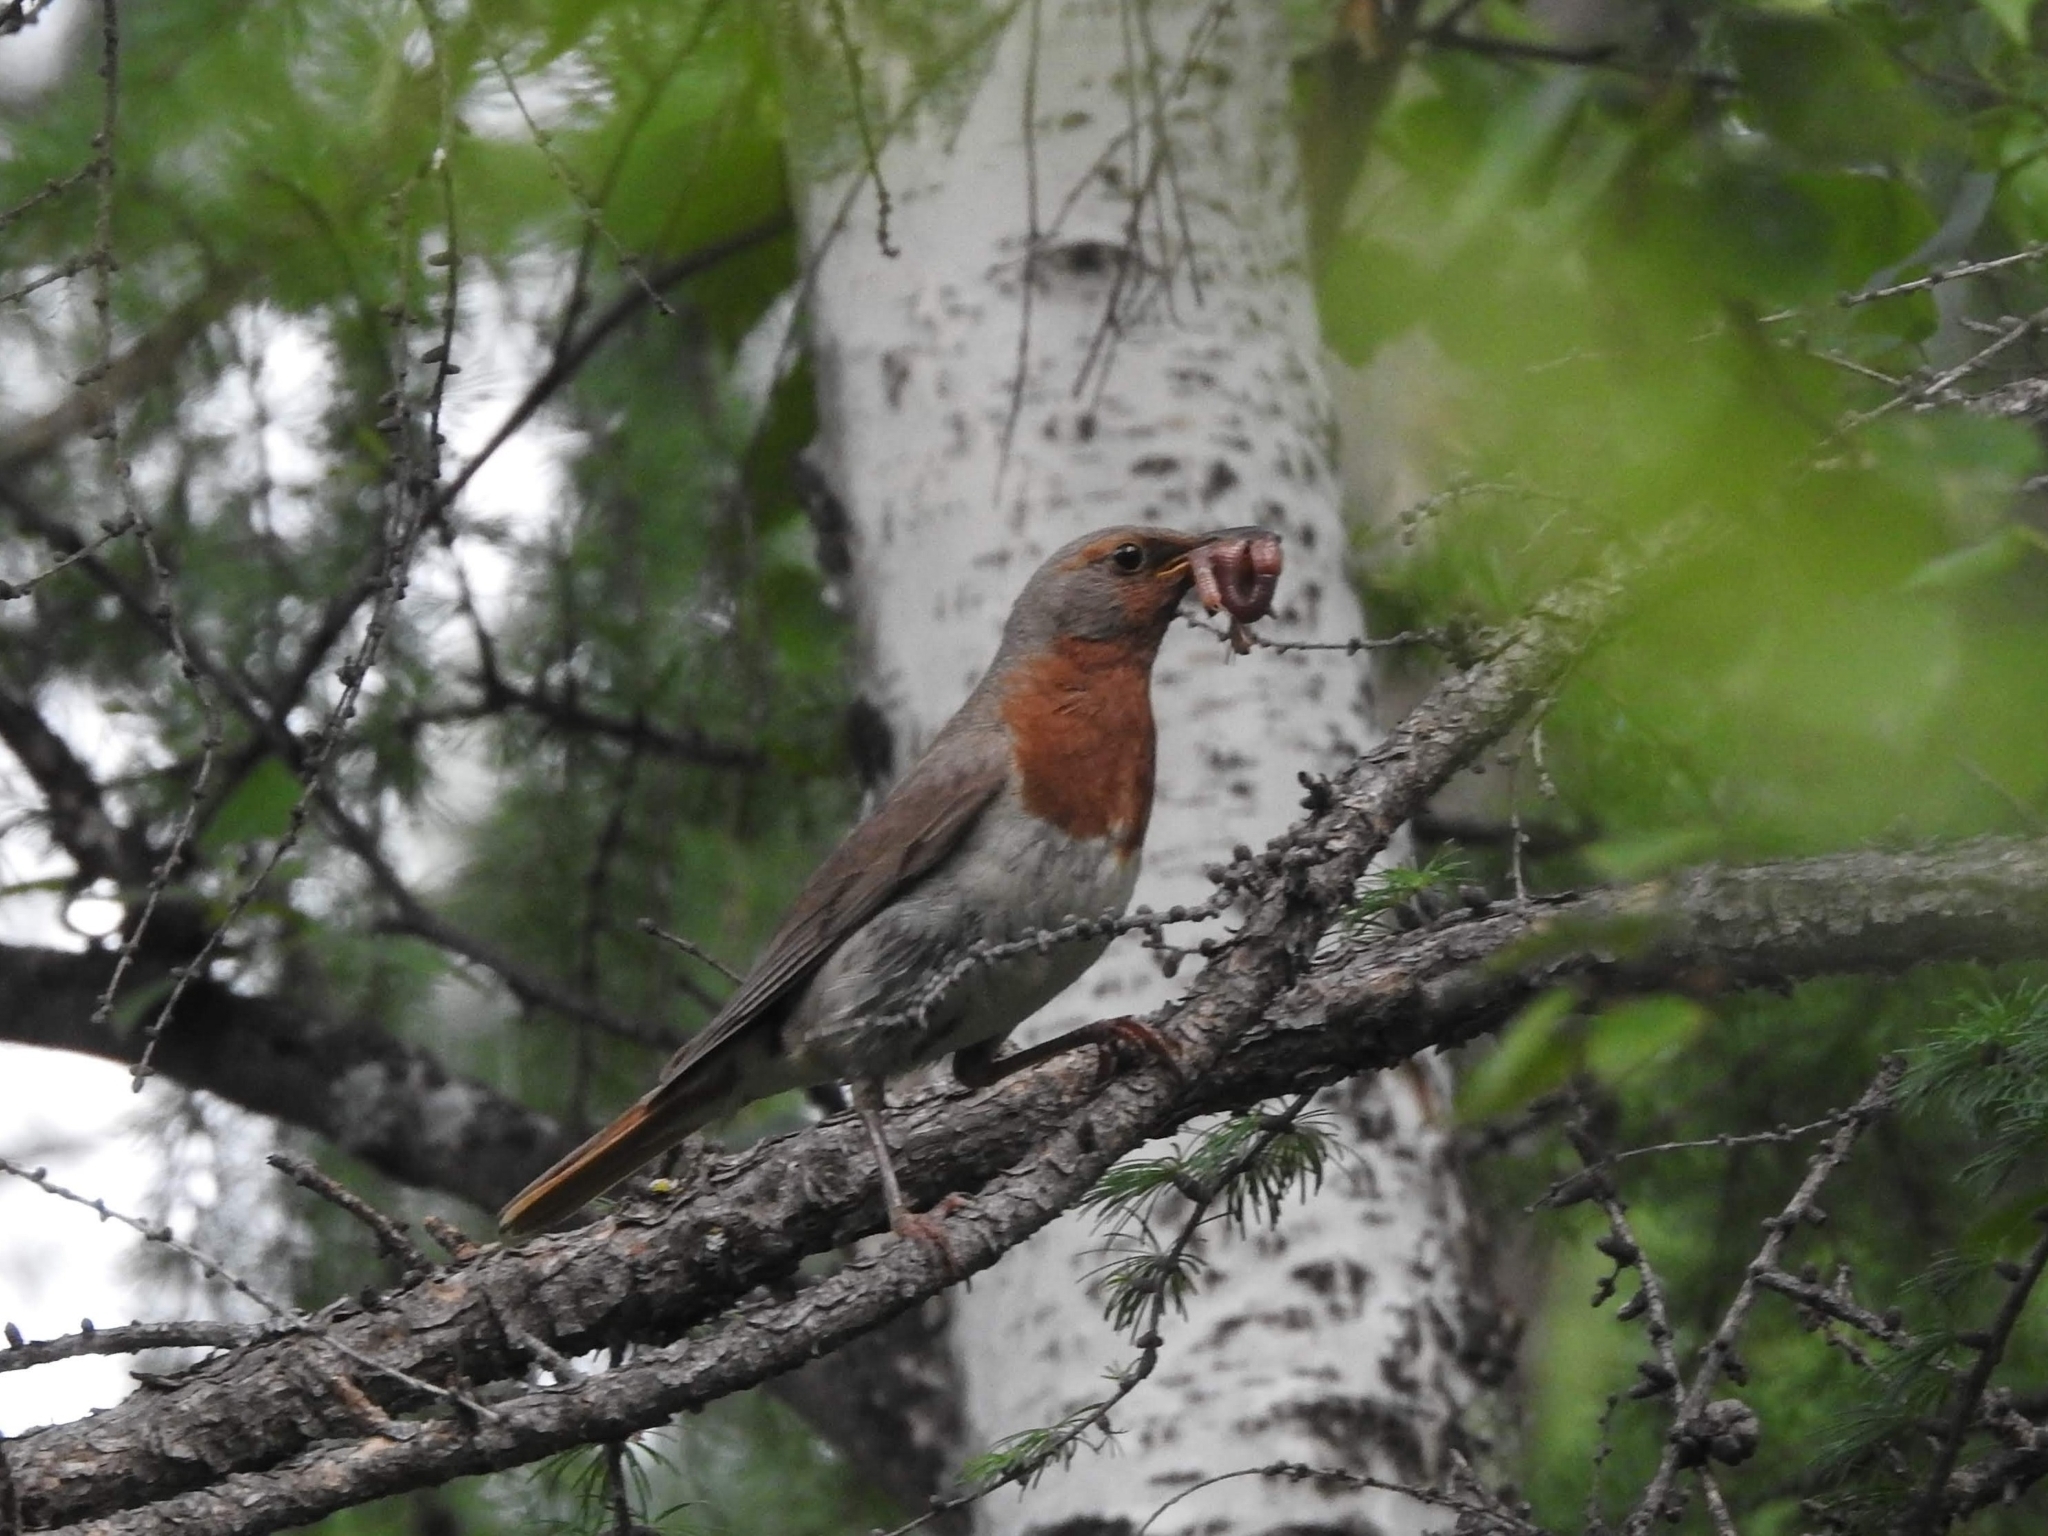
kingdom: Animalia
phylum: Chordata
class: Aves
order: Passeriformes
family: Turdidae
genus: Turdus
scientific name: Turdus ruficollis
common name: Red-throated thrush
